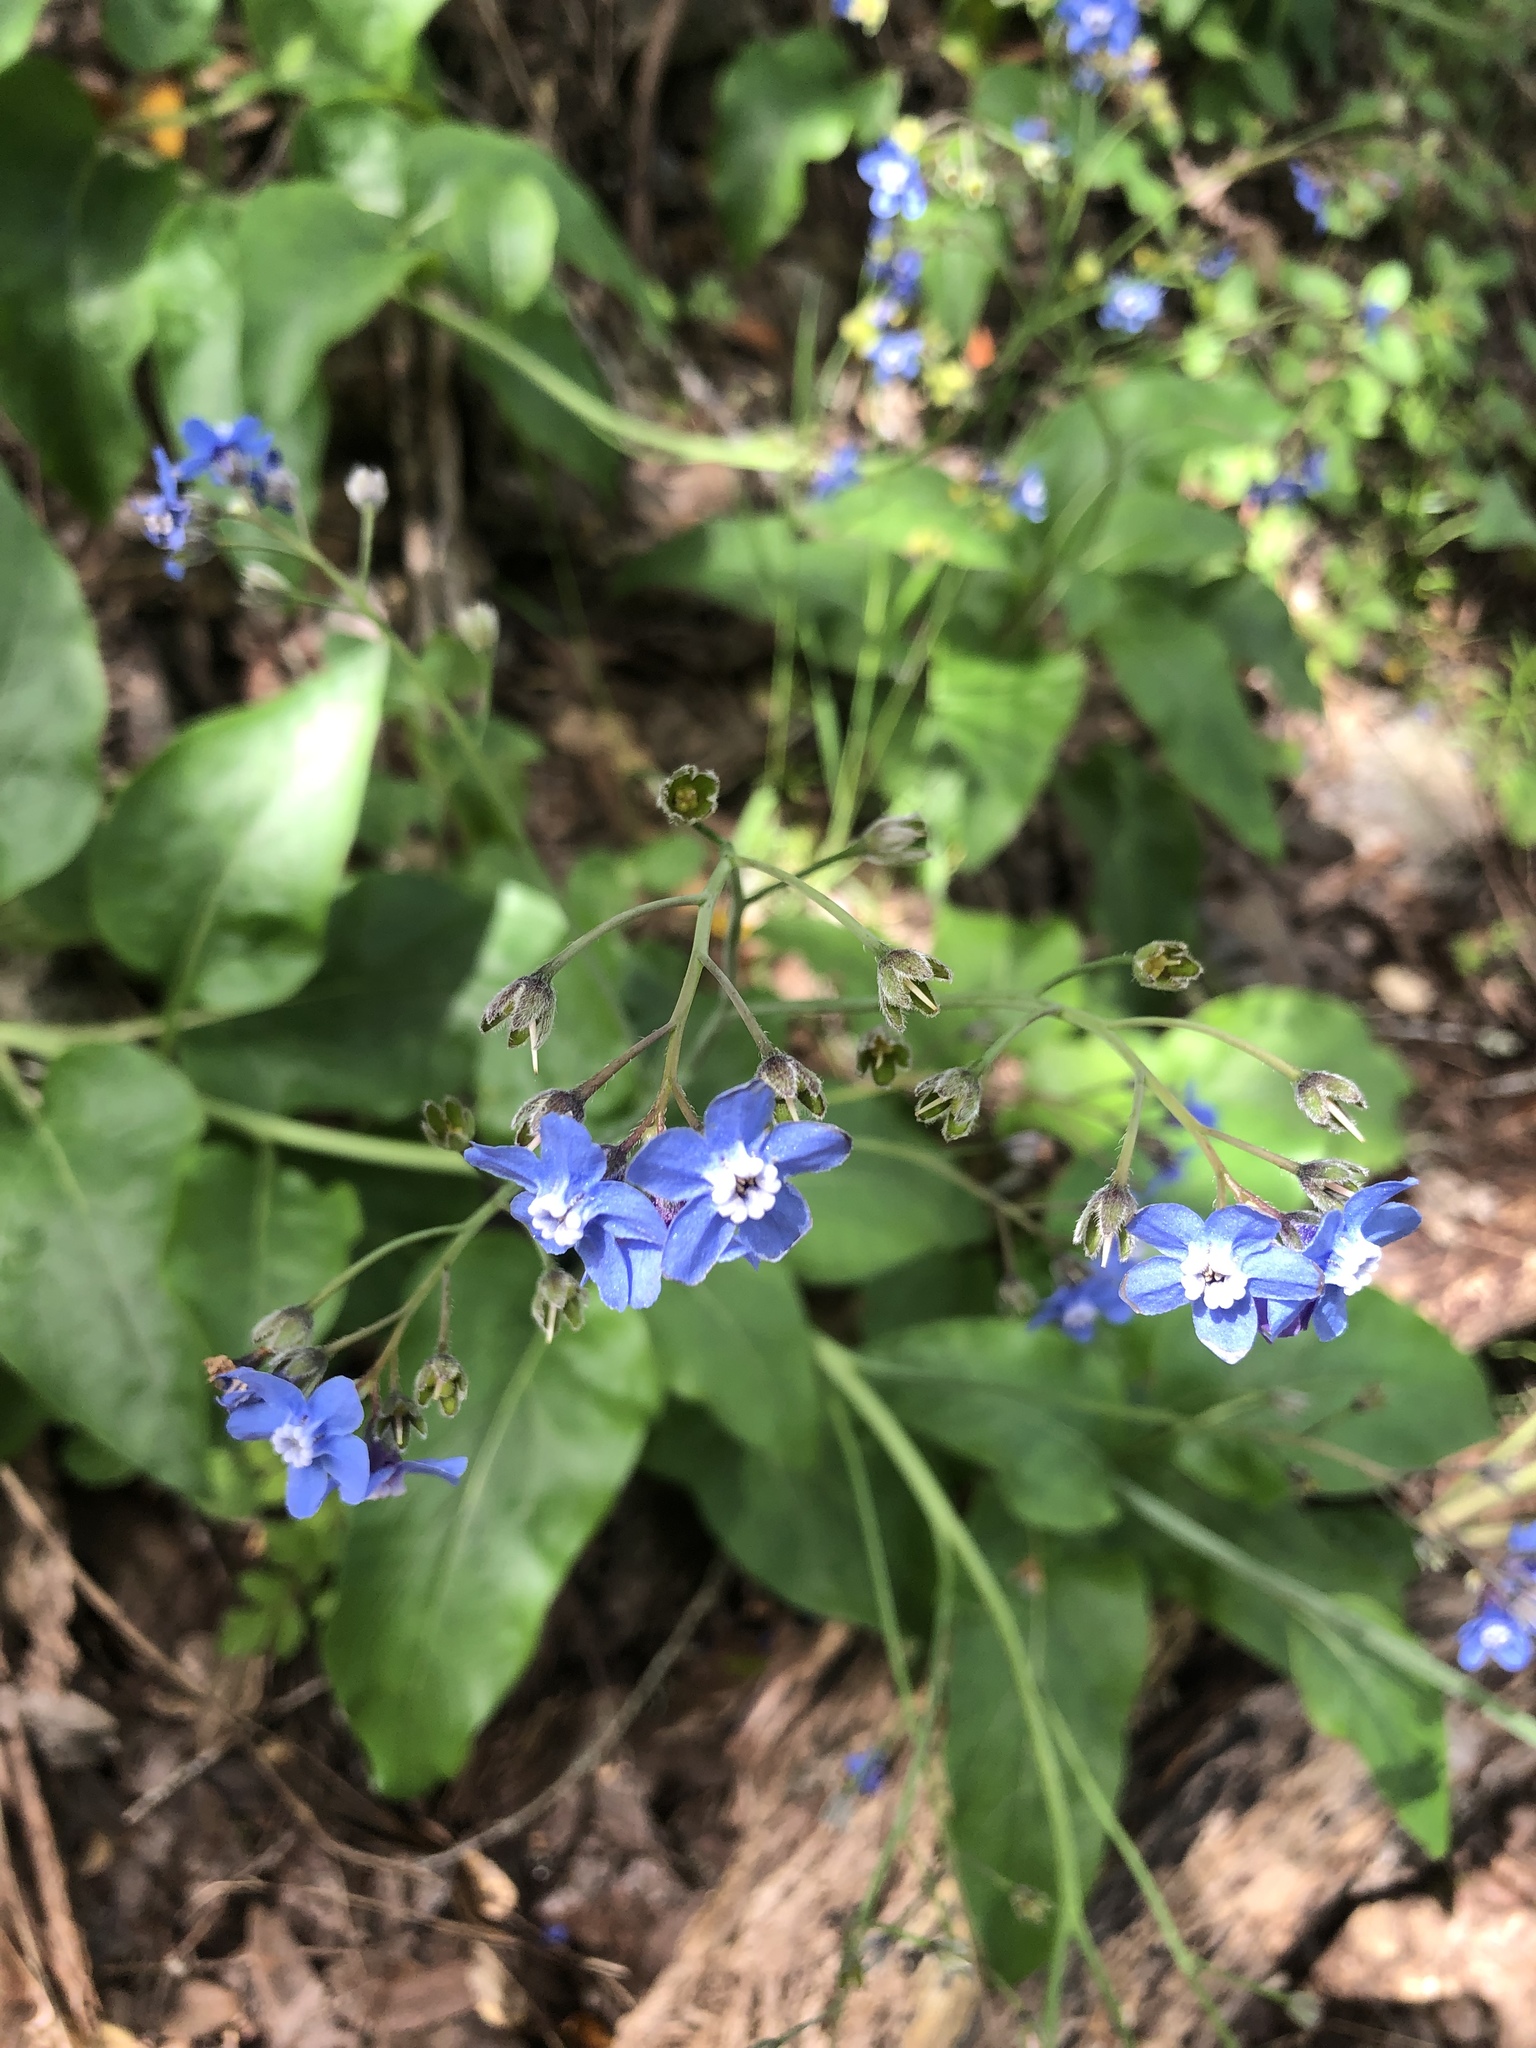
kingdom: Plantae
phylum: Tracheophyta
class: Magnoliopsida
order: Boraginales
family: Boraginaceae
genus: Adelinia
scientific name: Adelinia grande
